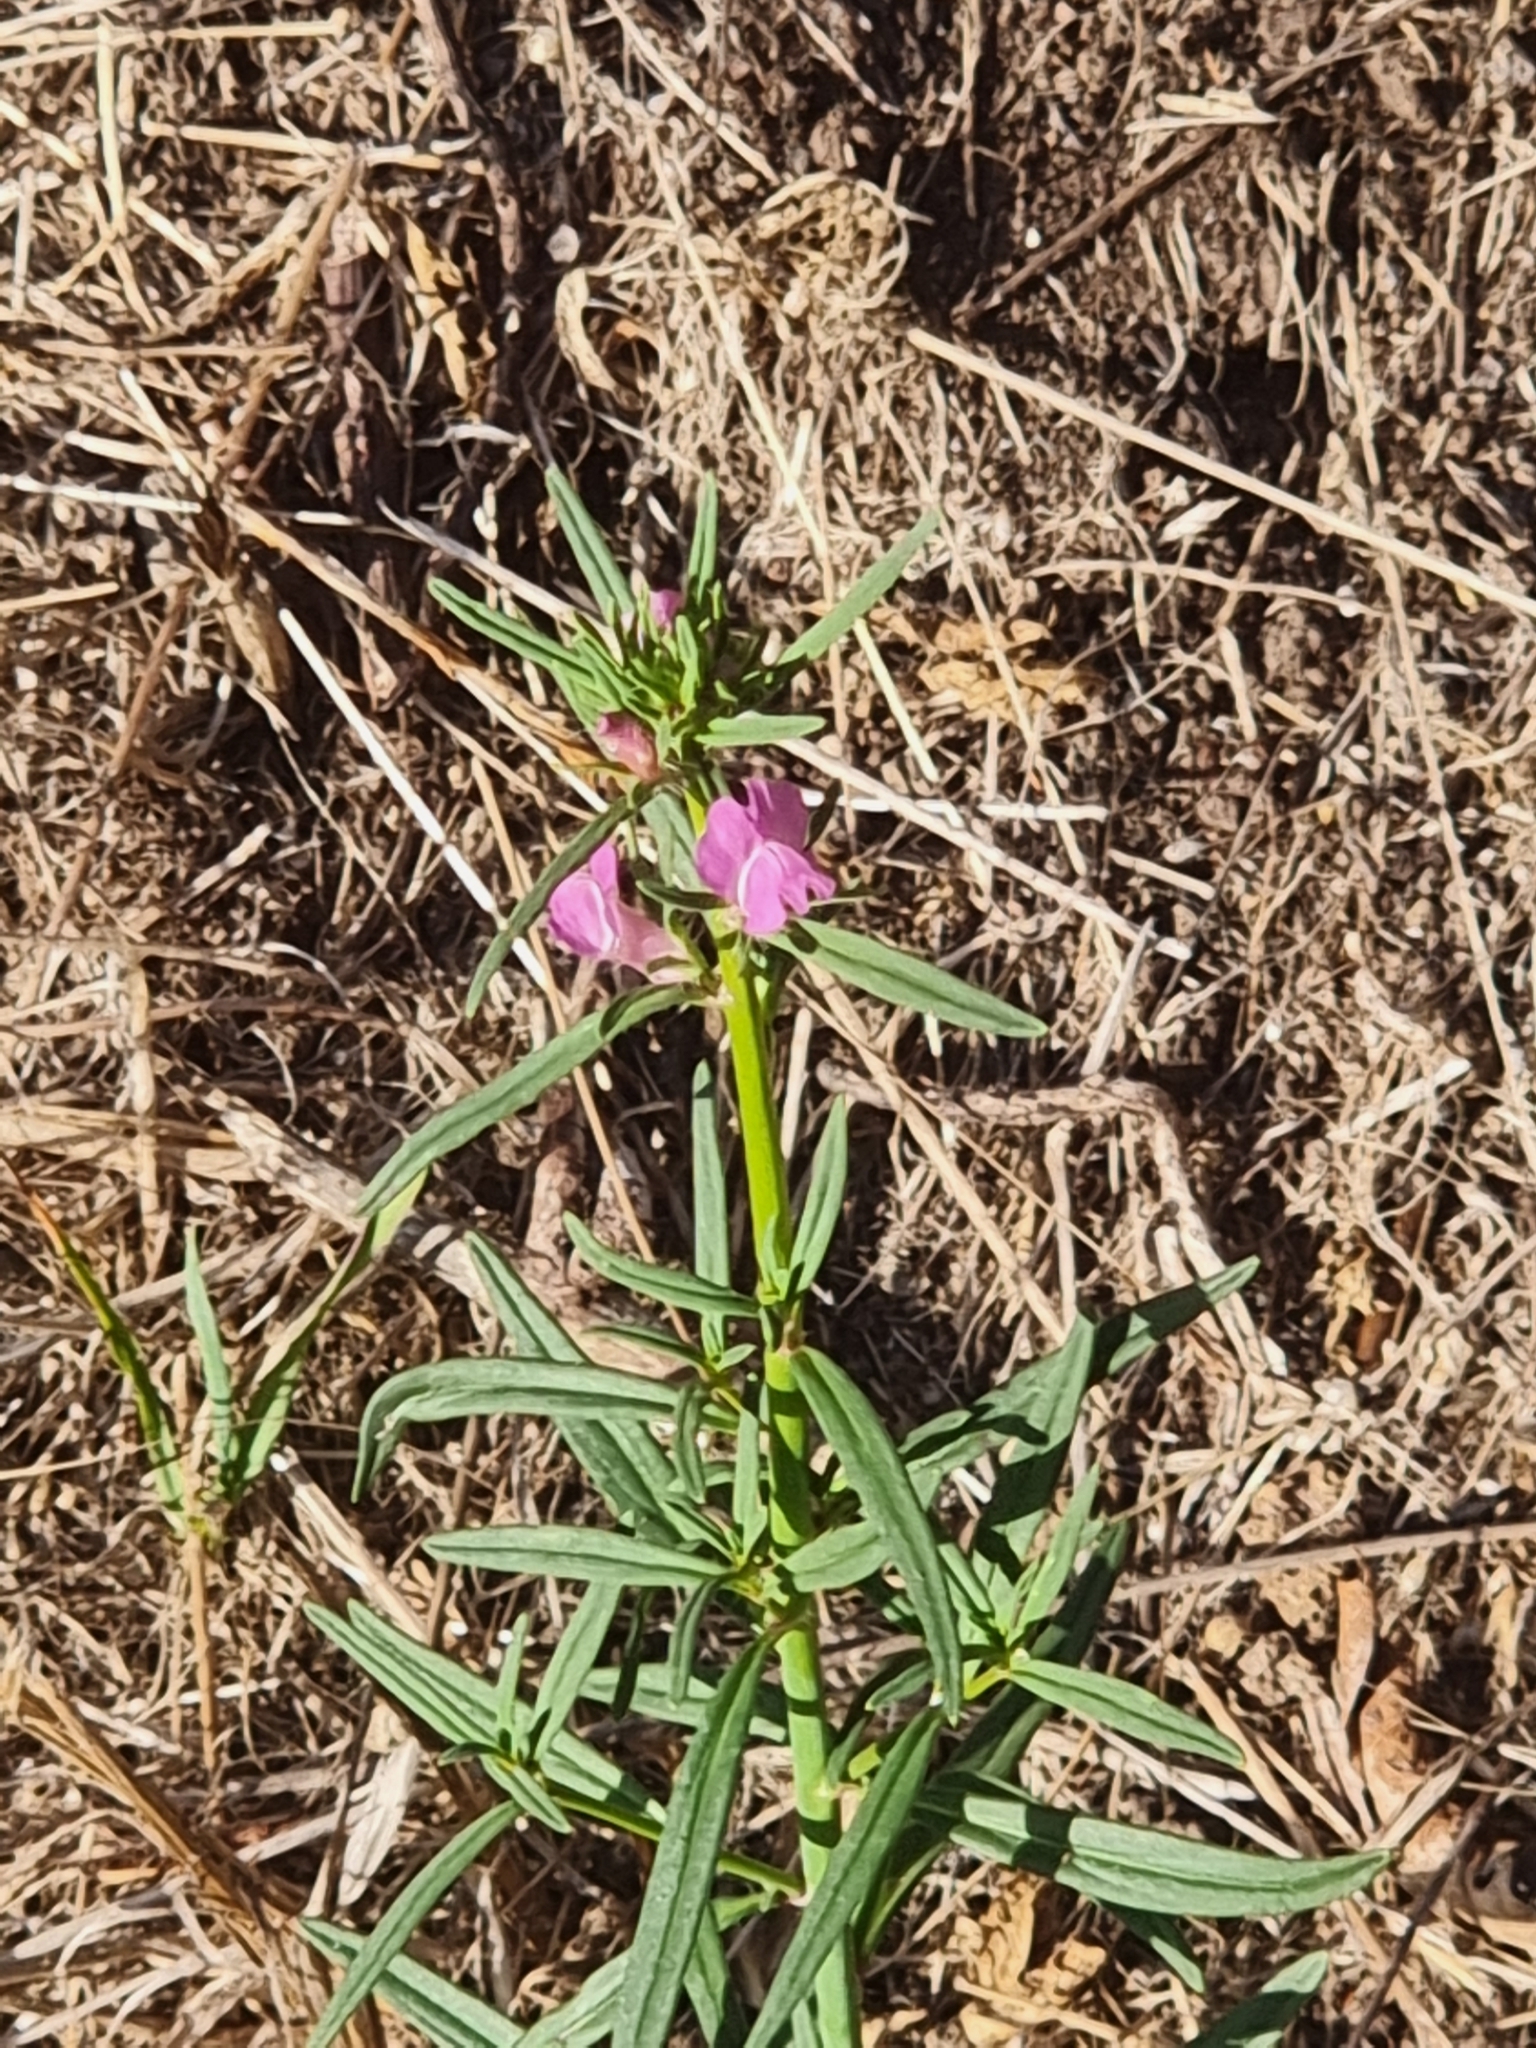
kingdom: Plantae
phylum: Tracheophyta
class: Magnoliopsida
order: Lamiales
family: Plantaginaceae
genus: Misopates
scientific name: Misopates orontium
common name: Weasel's-snout
